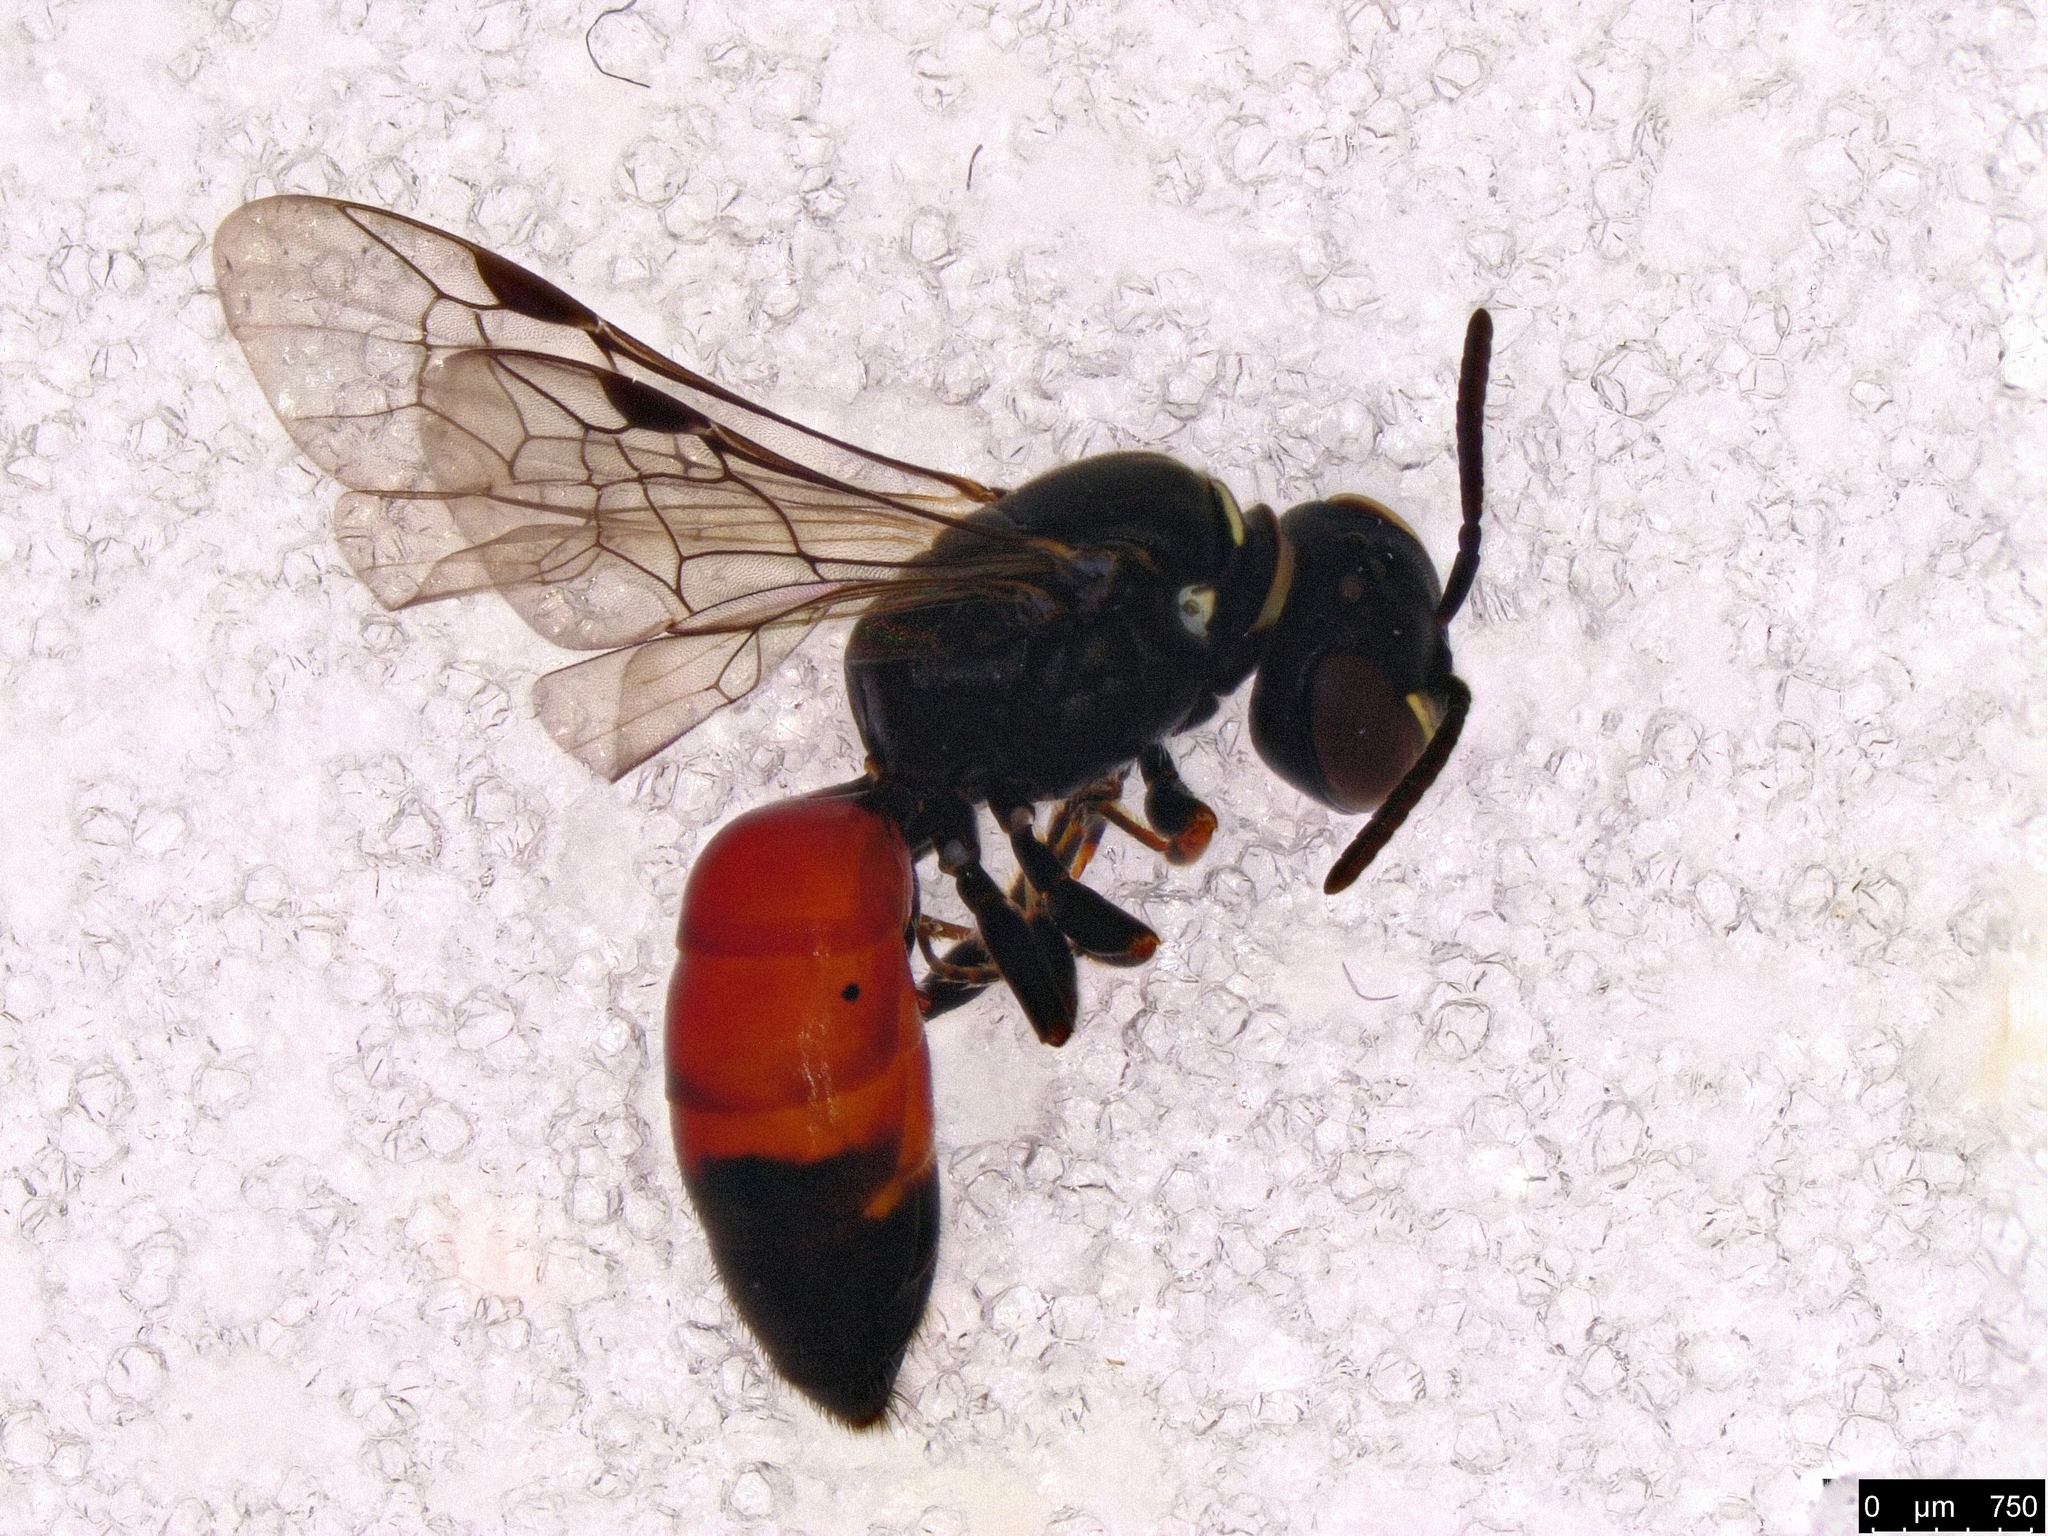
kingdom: Animalia
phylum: Arthropoda
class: Insecta
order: Hymenoptera
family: Colletidae
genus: Hylaeus
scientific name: Hylaeus littleri
